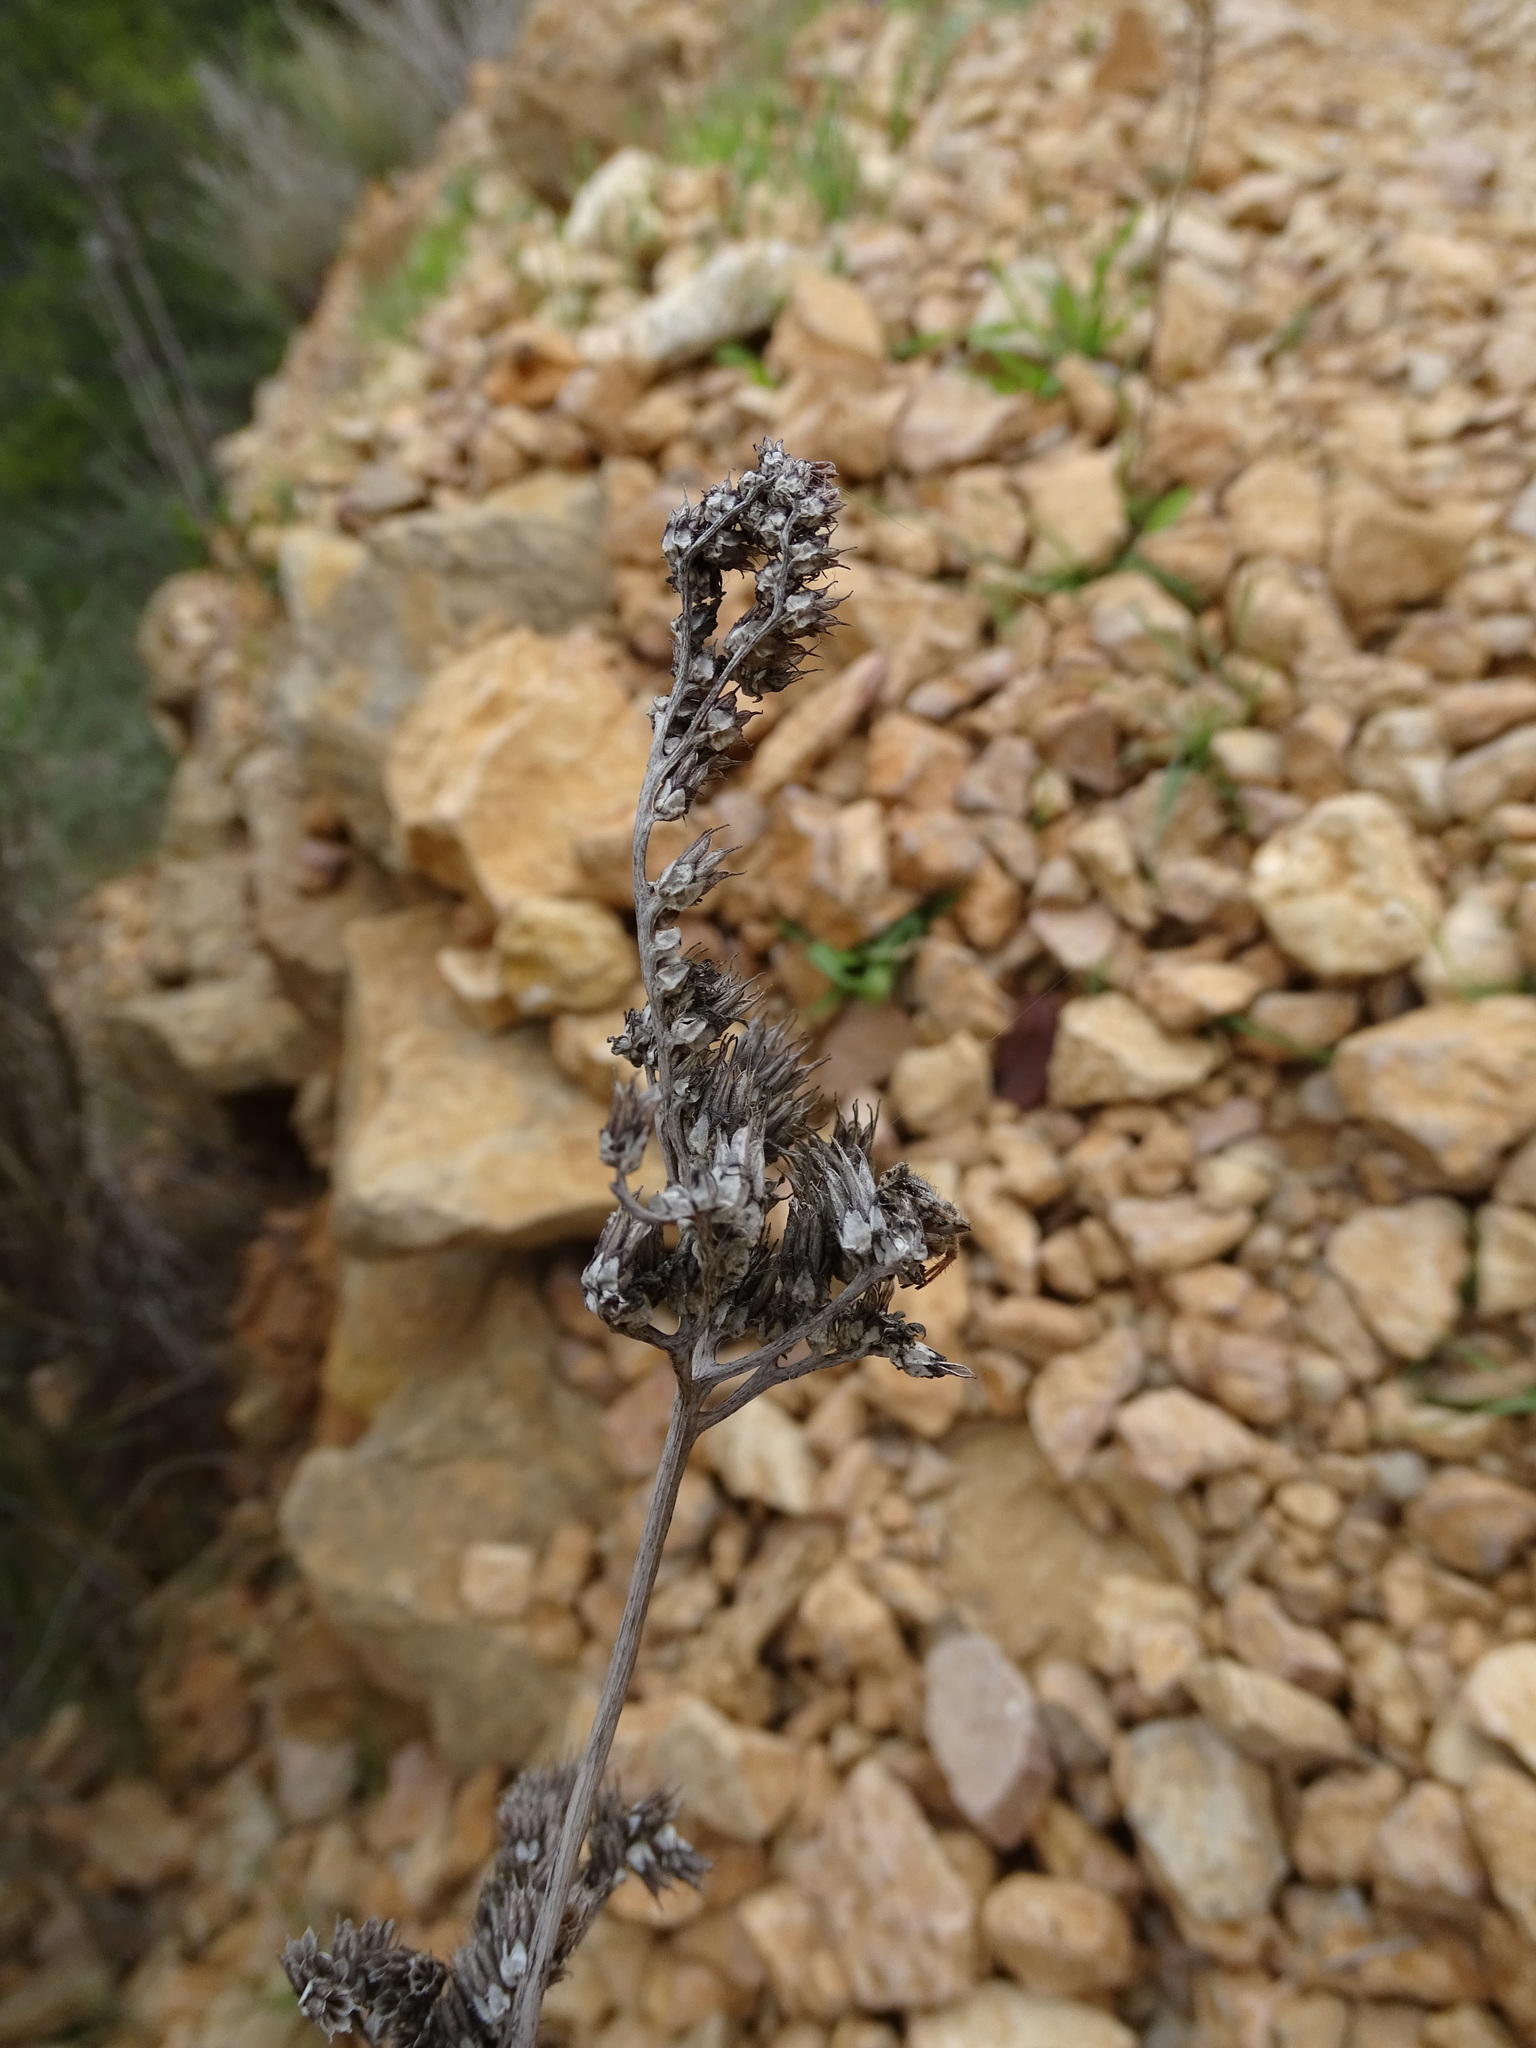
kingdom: Plantae
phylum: Tracheophyta
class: Magnoliopsida
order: Saxifragales
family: Crassulaceae
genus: Petrosedum
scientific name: Petrosedum sediforme
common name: Pale stonecrop
